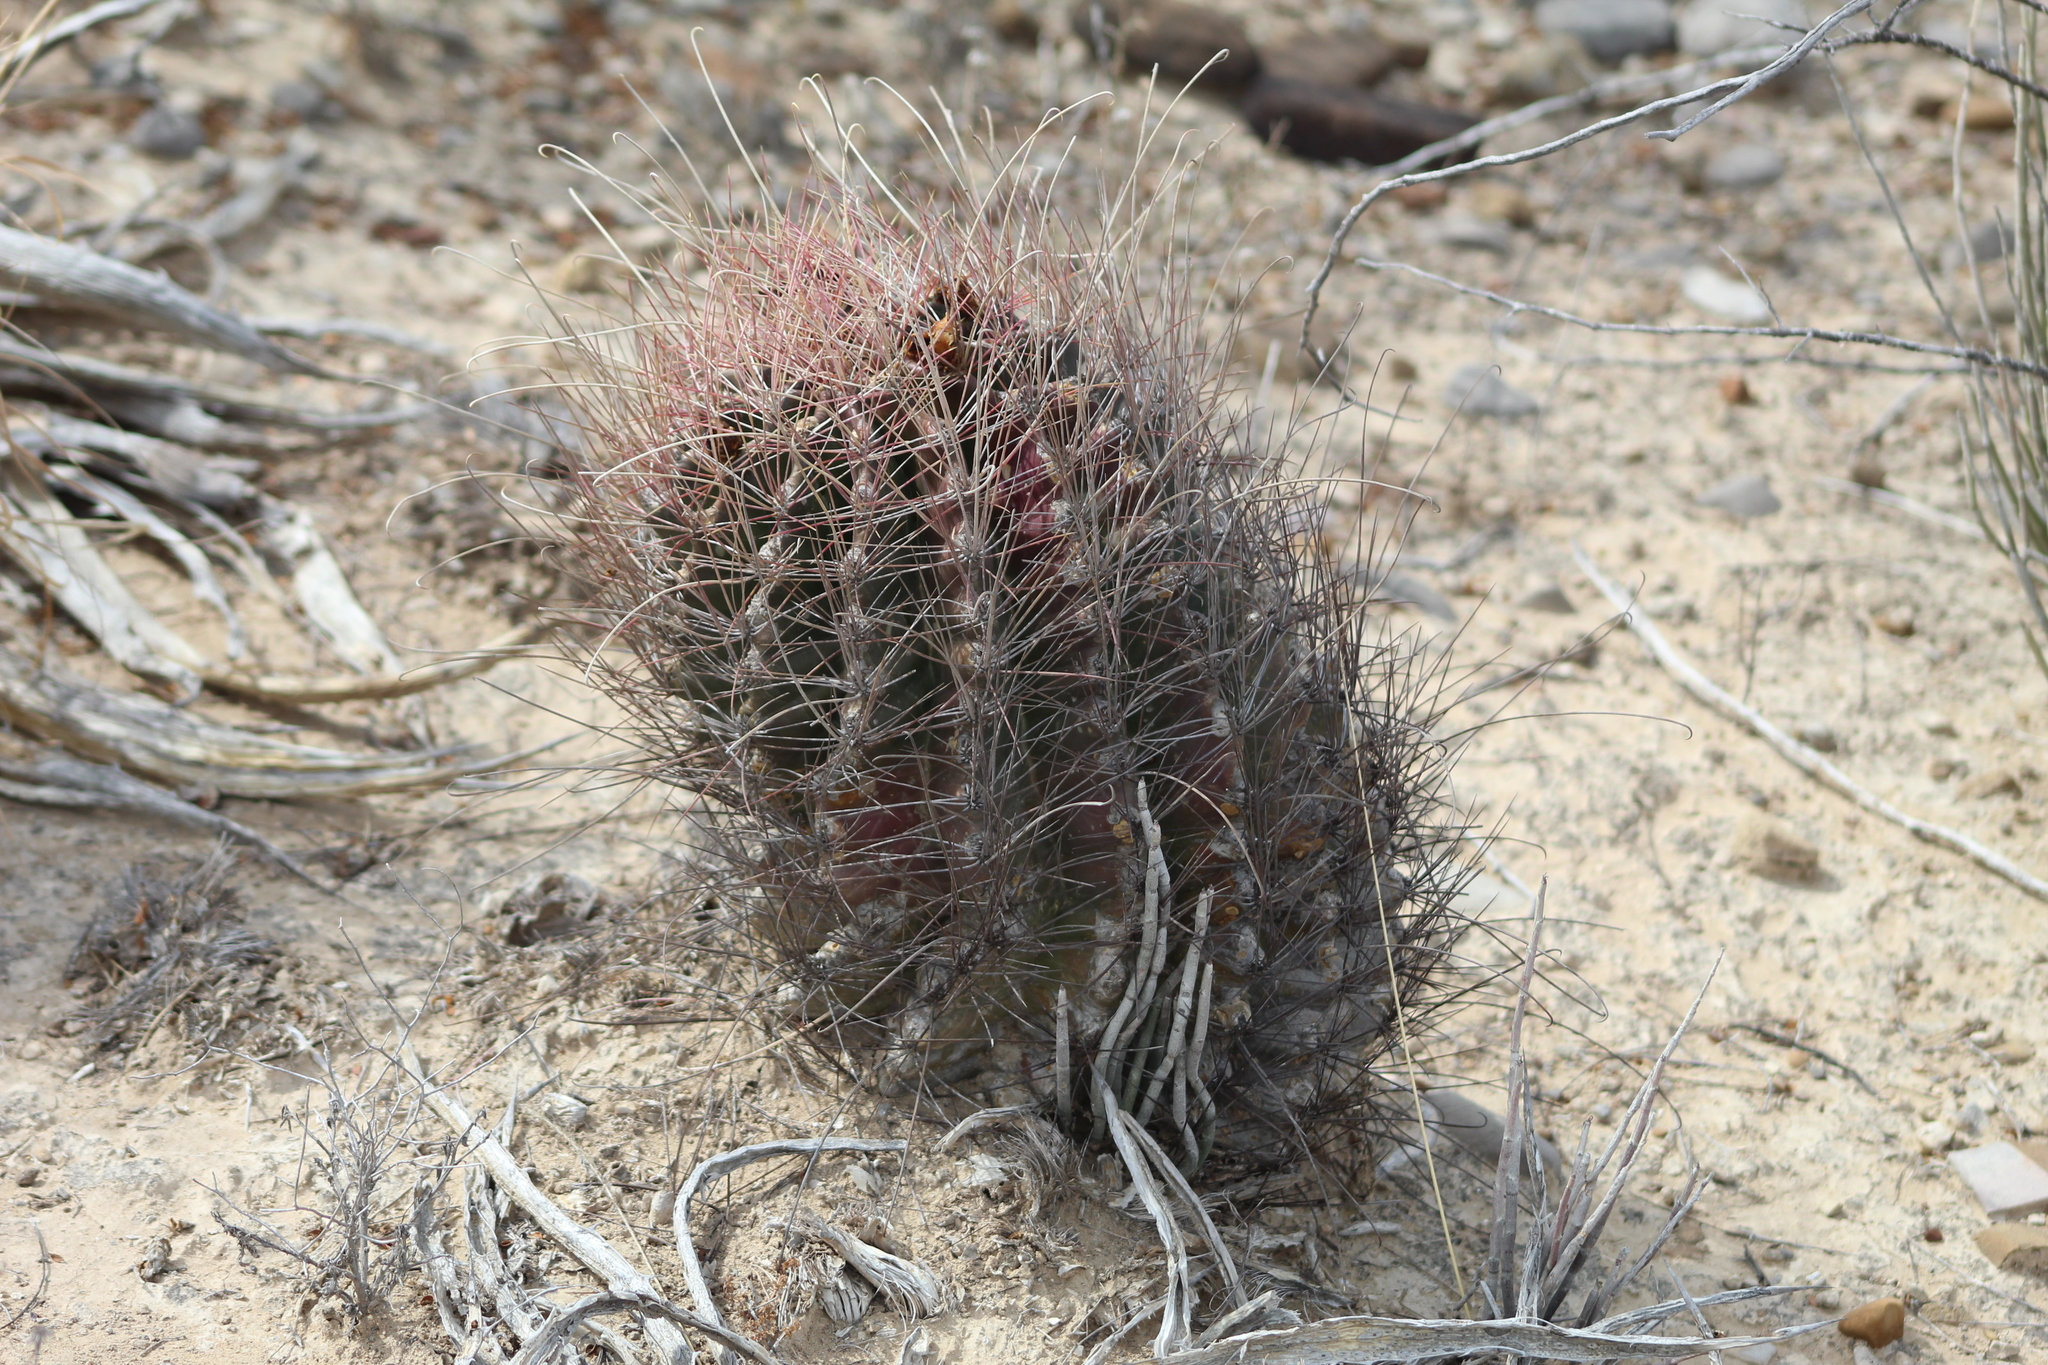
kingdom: Plantae
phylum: Tracheophyta
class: Magnoliopsida
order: Caryophyllales
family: Cactaceae
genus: Bisnaga
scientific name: Bisnaga hamatacantha
